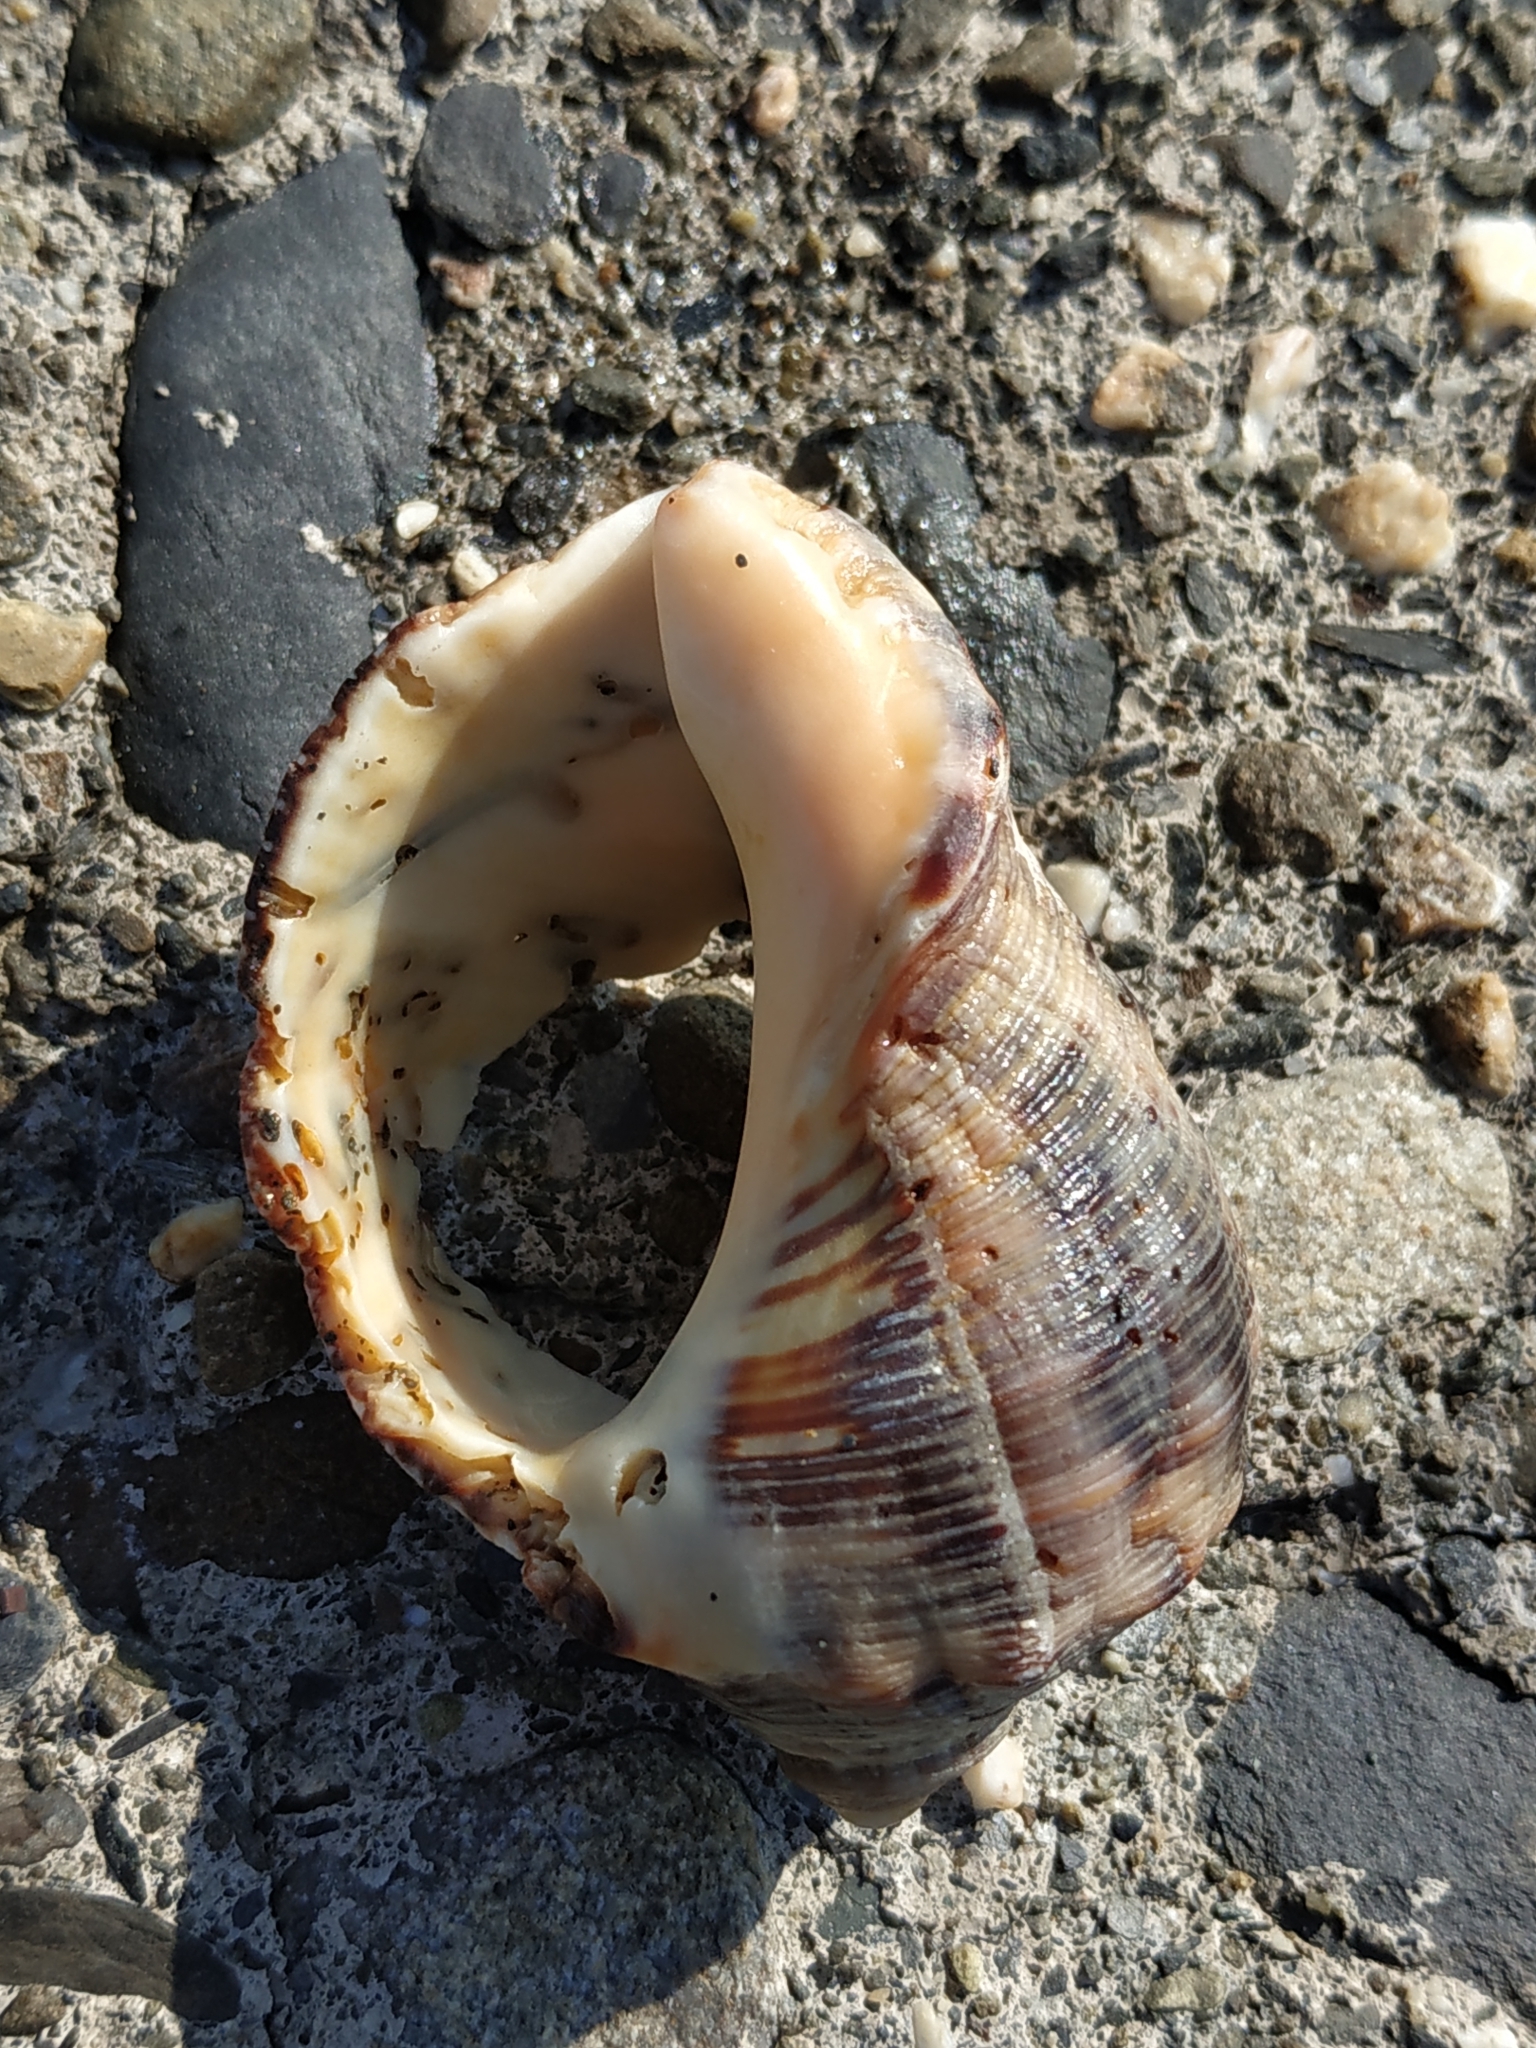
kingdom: Animalia
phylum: Mollusca
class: Gastropoda
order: Neogastropoda
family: Muricidae
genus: Purpura
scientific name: Purpura bufo
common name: Toad purple
